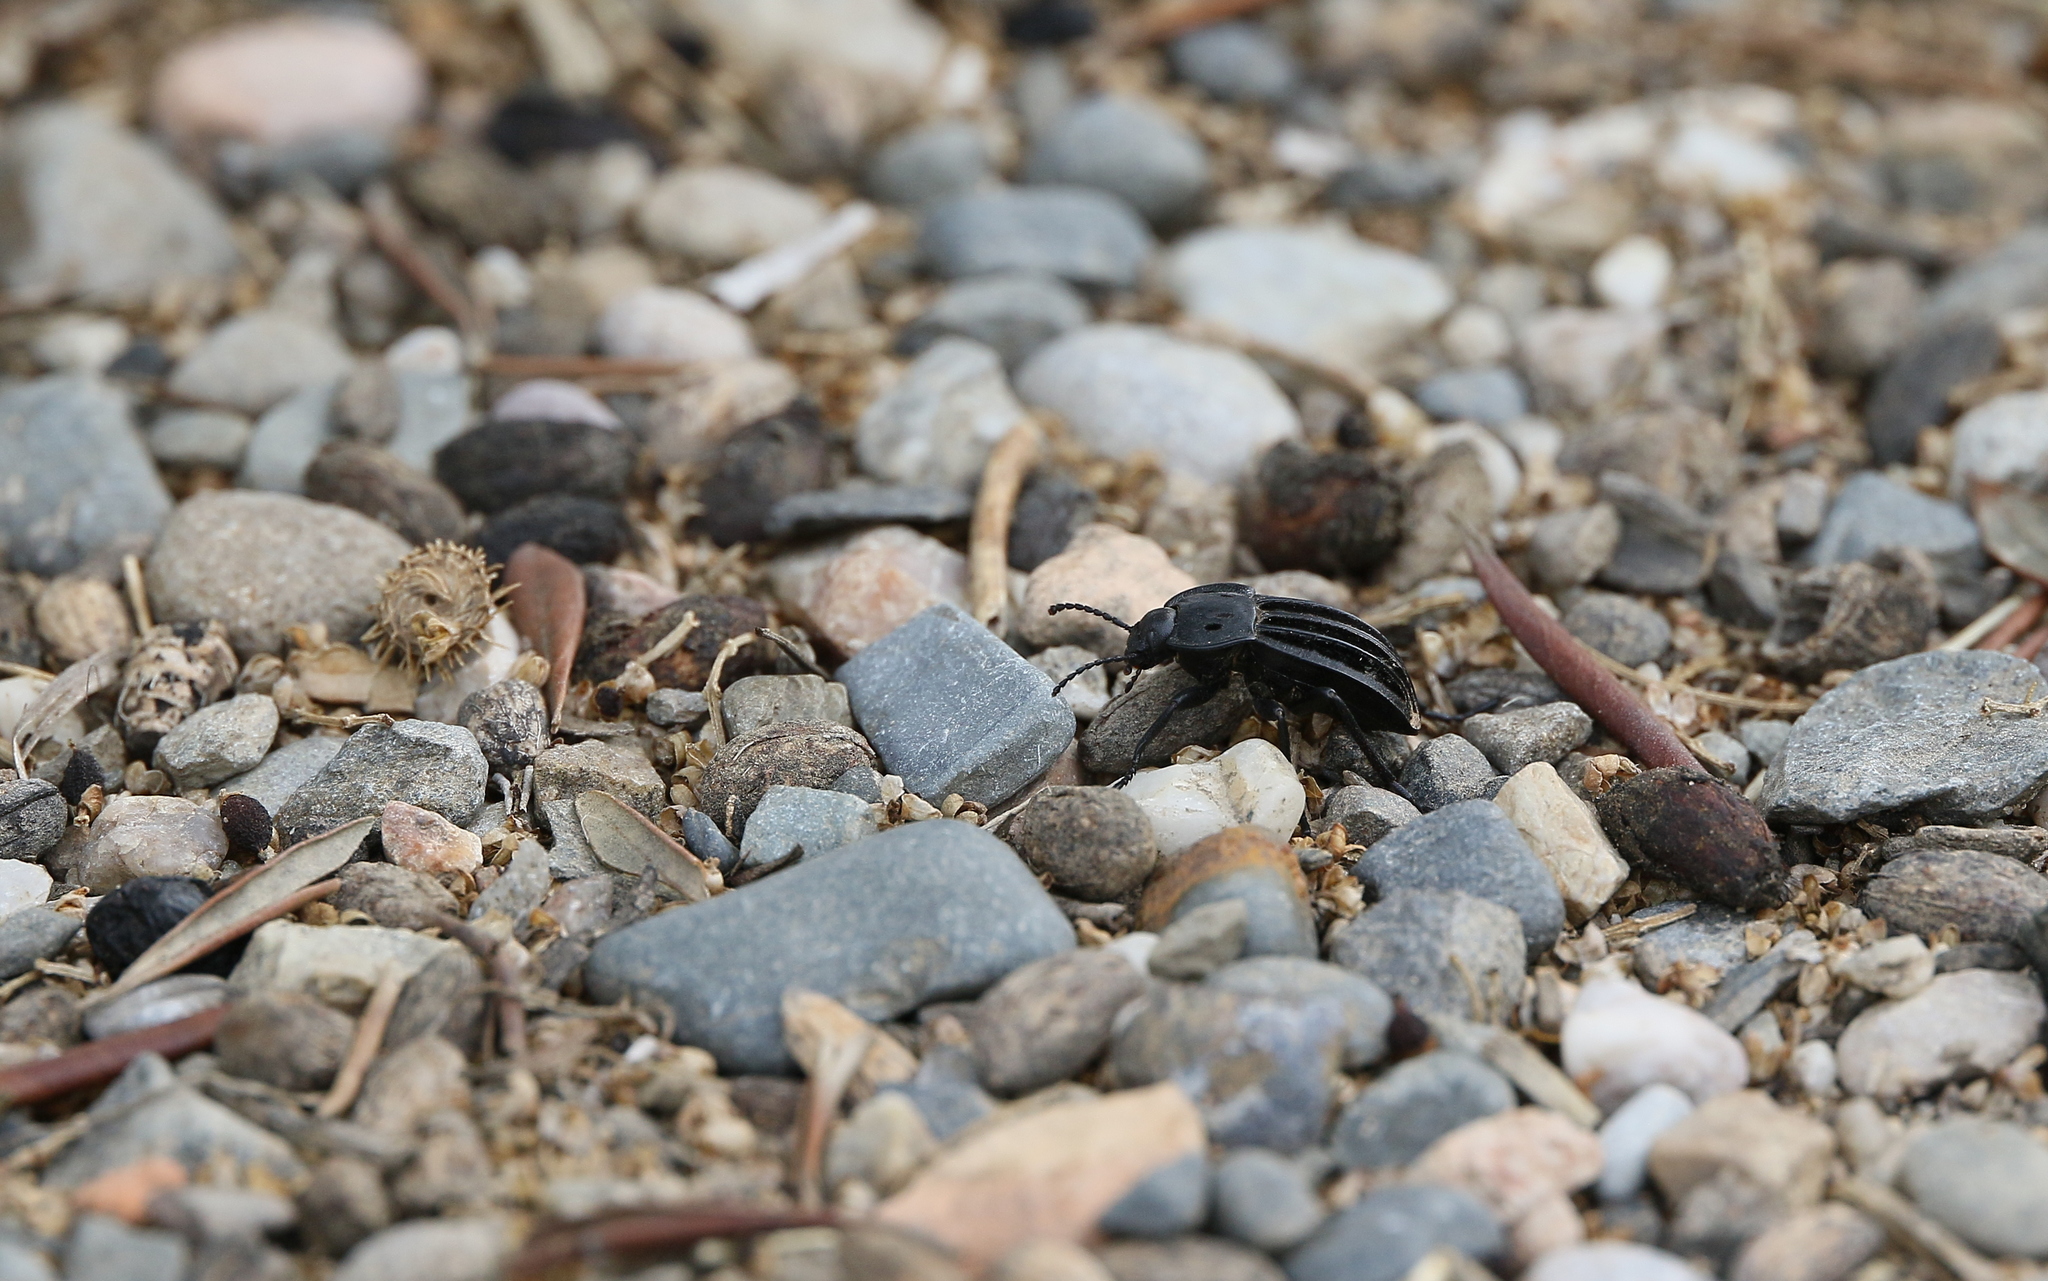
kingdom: Animalia
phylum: Arthropoda
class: Insecta
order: Coleoptera
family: Tenebrionidae
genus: Alphasida
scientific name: Alphasida holosericea
